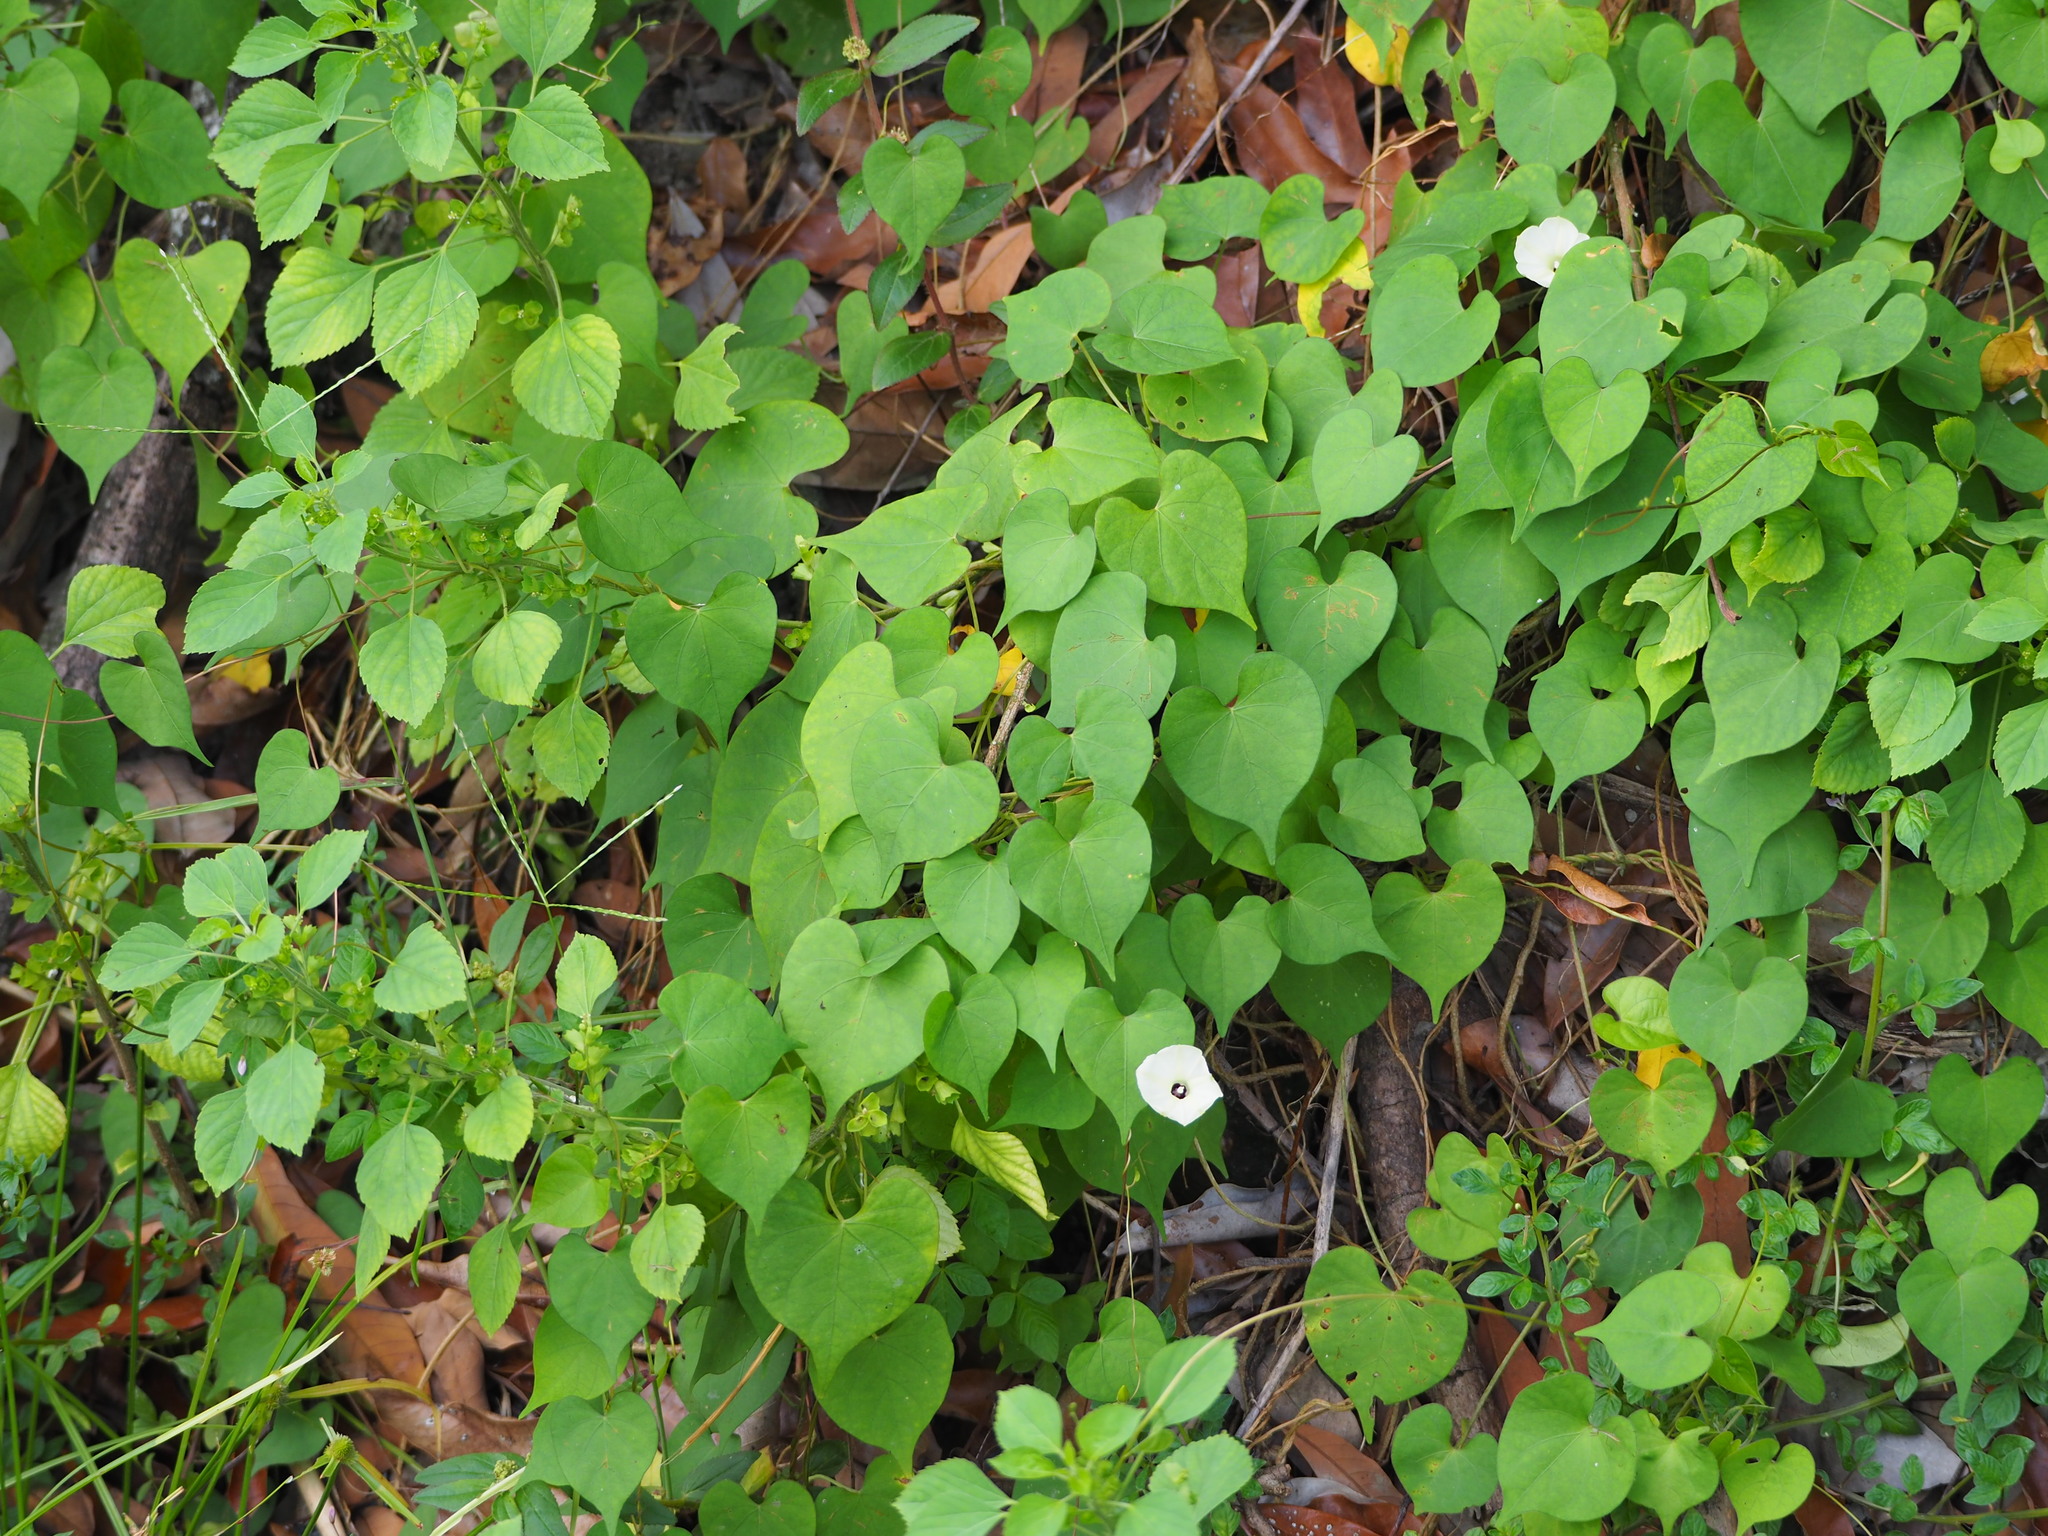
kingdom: Plantae
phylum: Tracheophyta
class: Magnoliopsida
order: Solanales
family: Convolvulaceae
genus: Ipomoea
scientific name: Ipomoea obscura
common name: Obscure morning-glory
